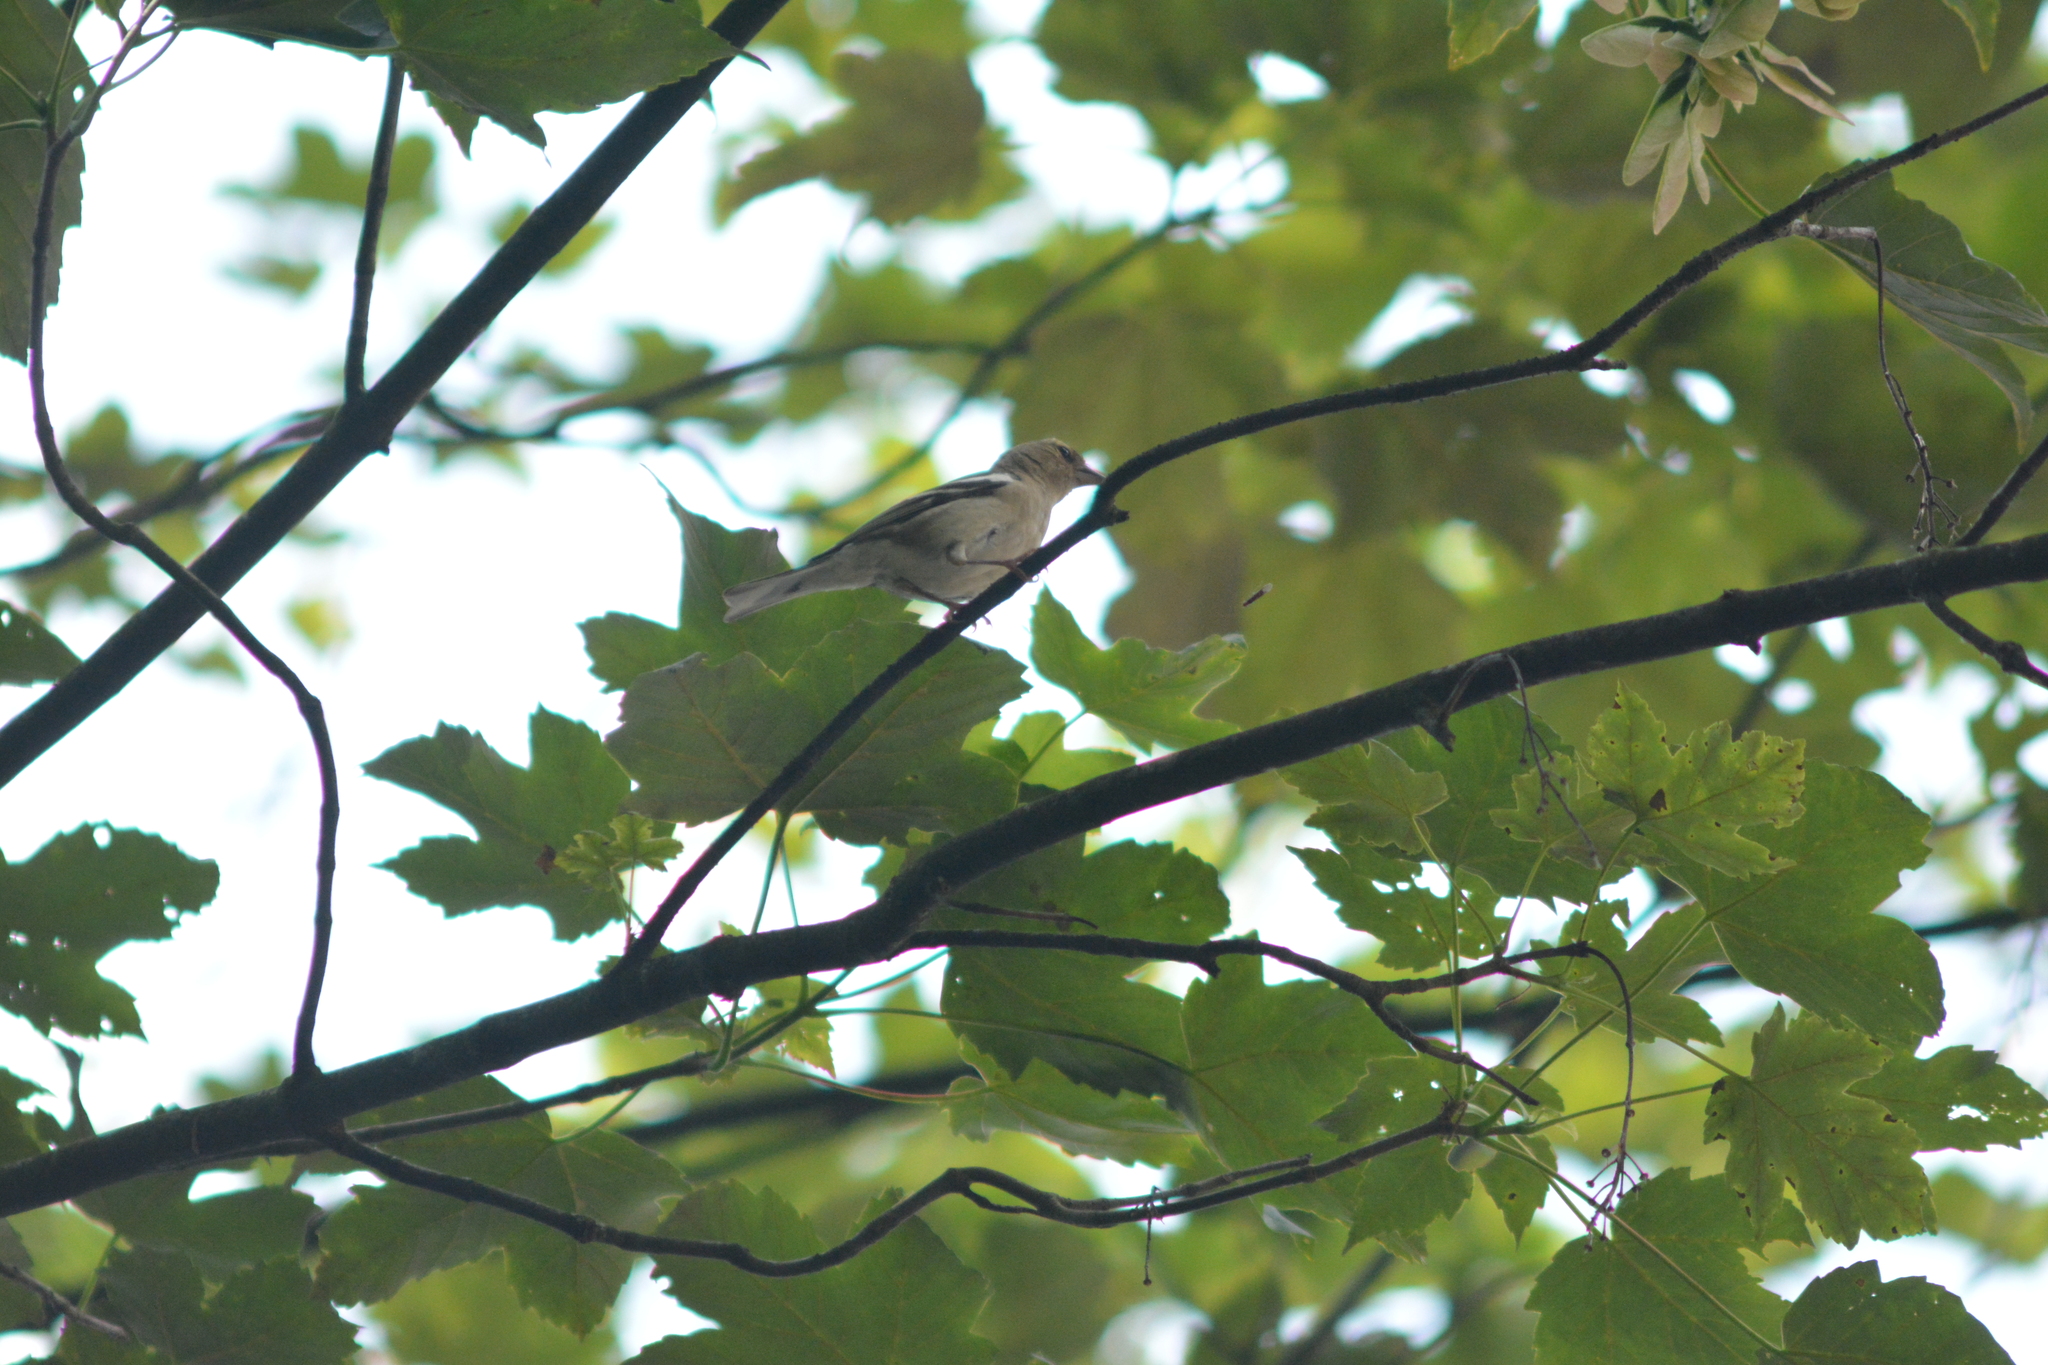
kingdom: Animalia
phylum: Chordata
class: Aves
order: Passeriformes
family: Fringillidae
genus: Fringilla
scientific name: Fringilla coelebs
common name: Common chaffinch
